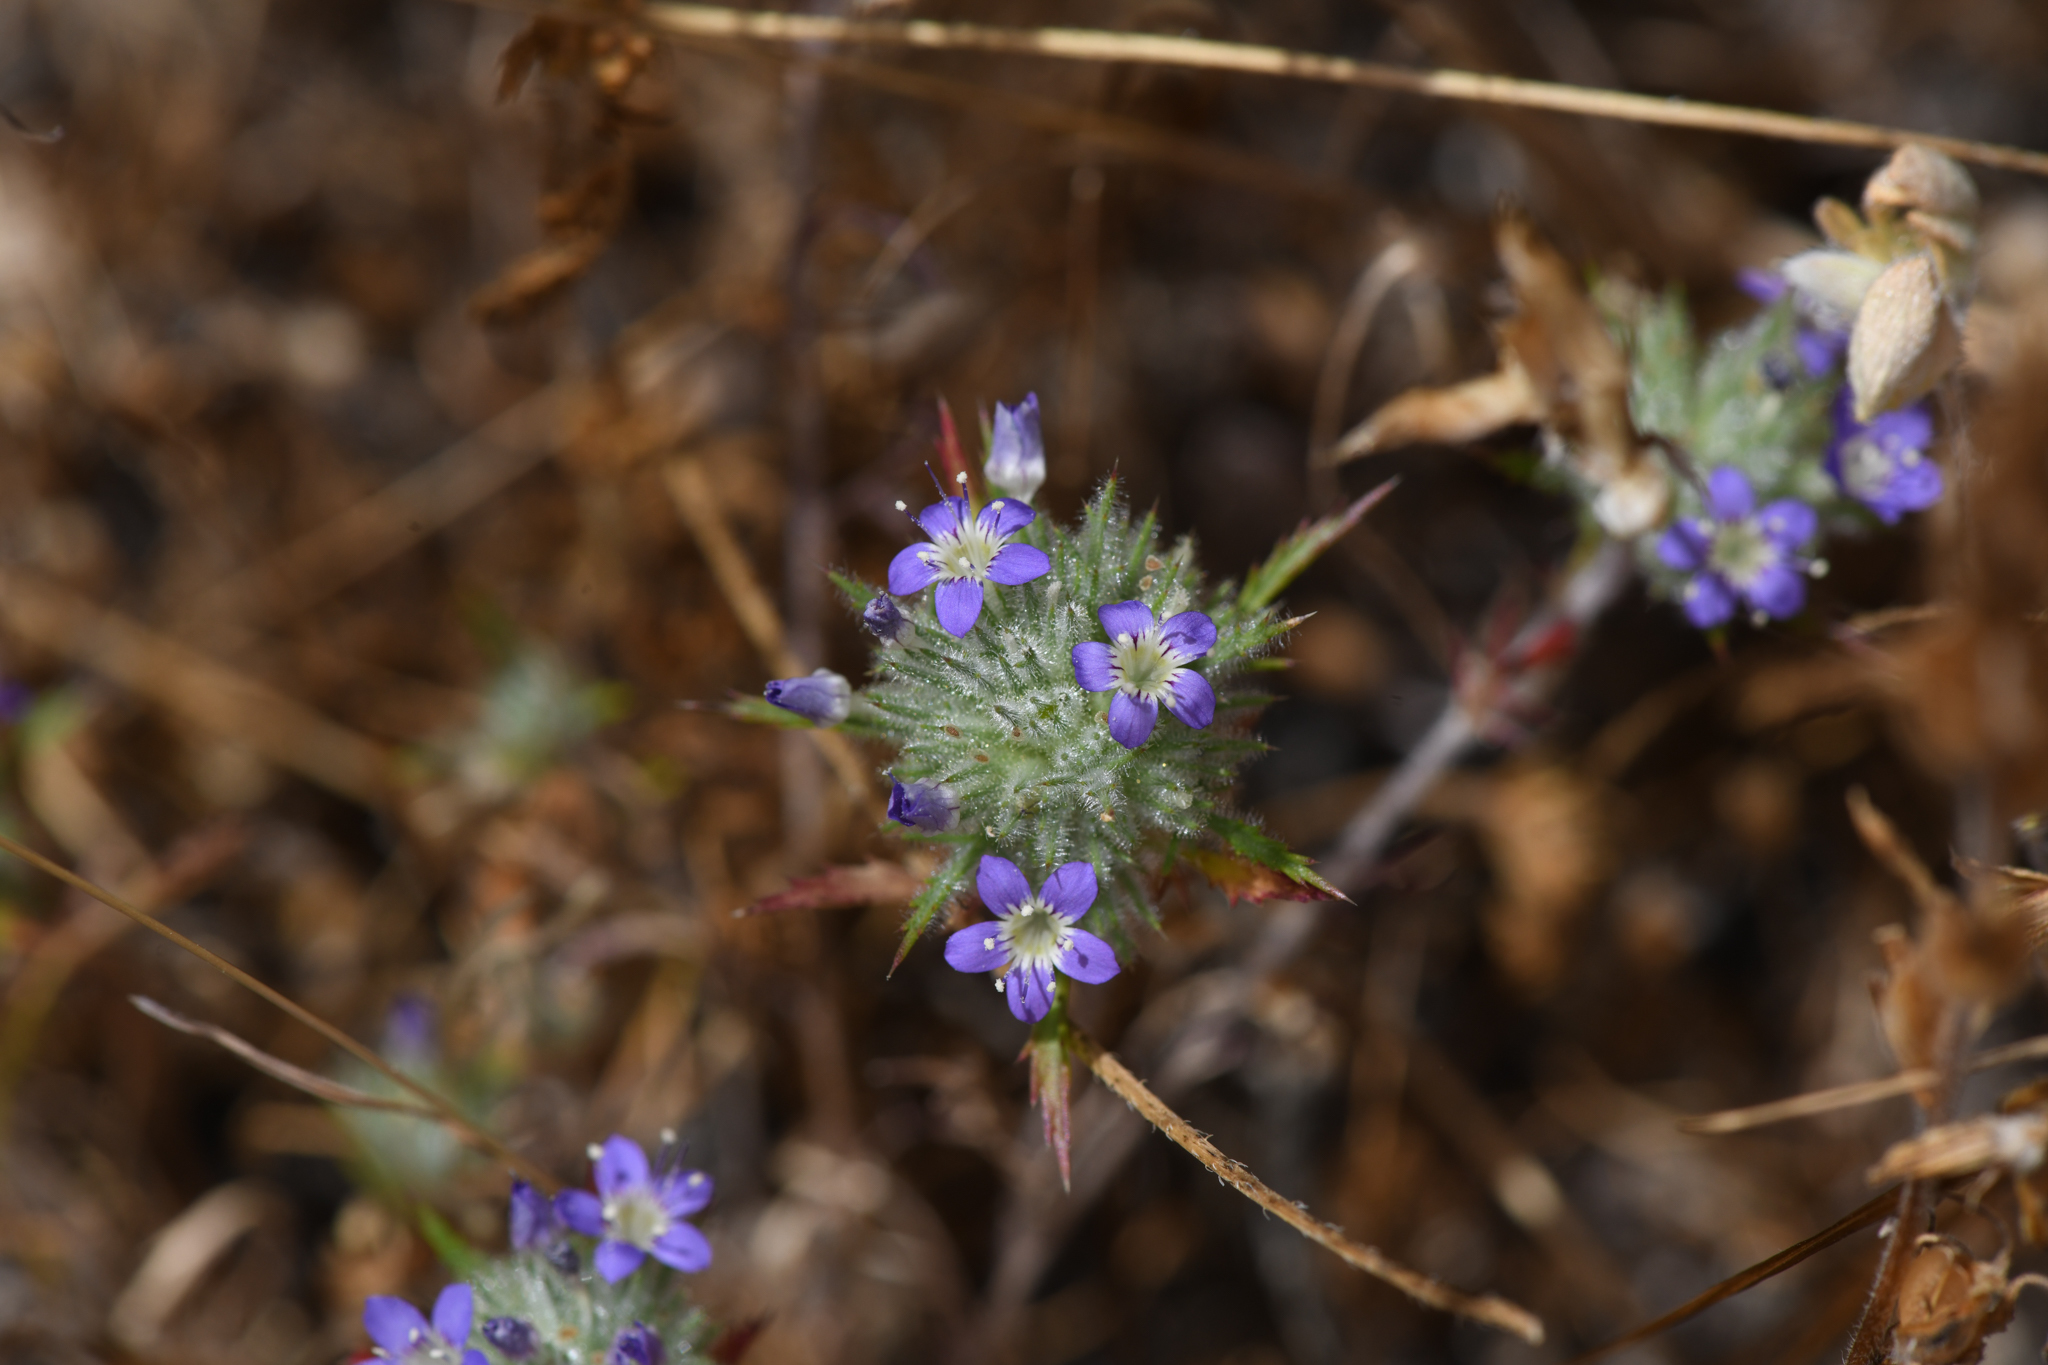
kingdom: Plantae
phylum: Tracheophyta
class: Magnoliopsida
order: Ericales
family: Polemoniaceae
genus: Navarretia
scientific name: Navarretia pubescens
